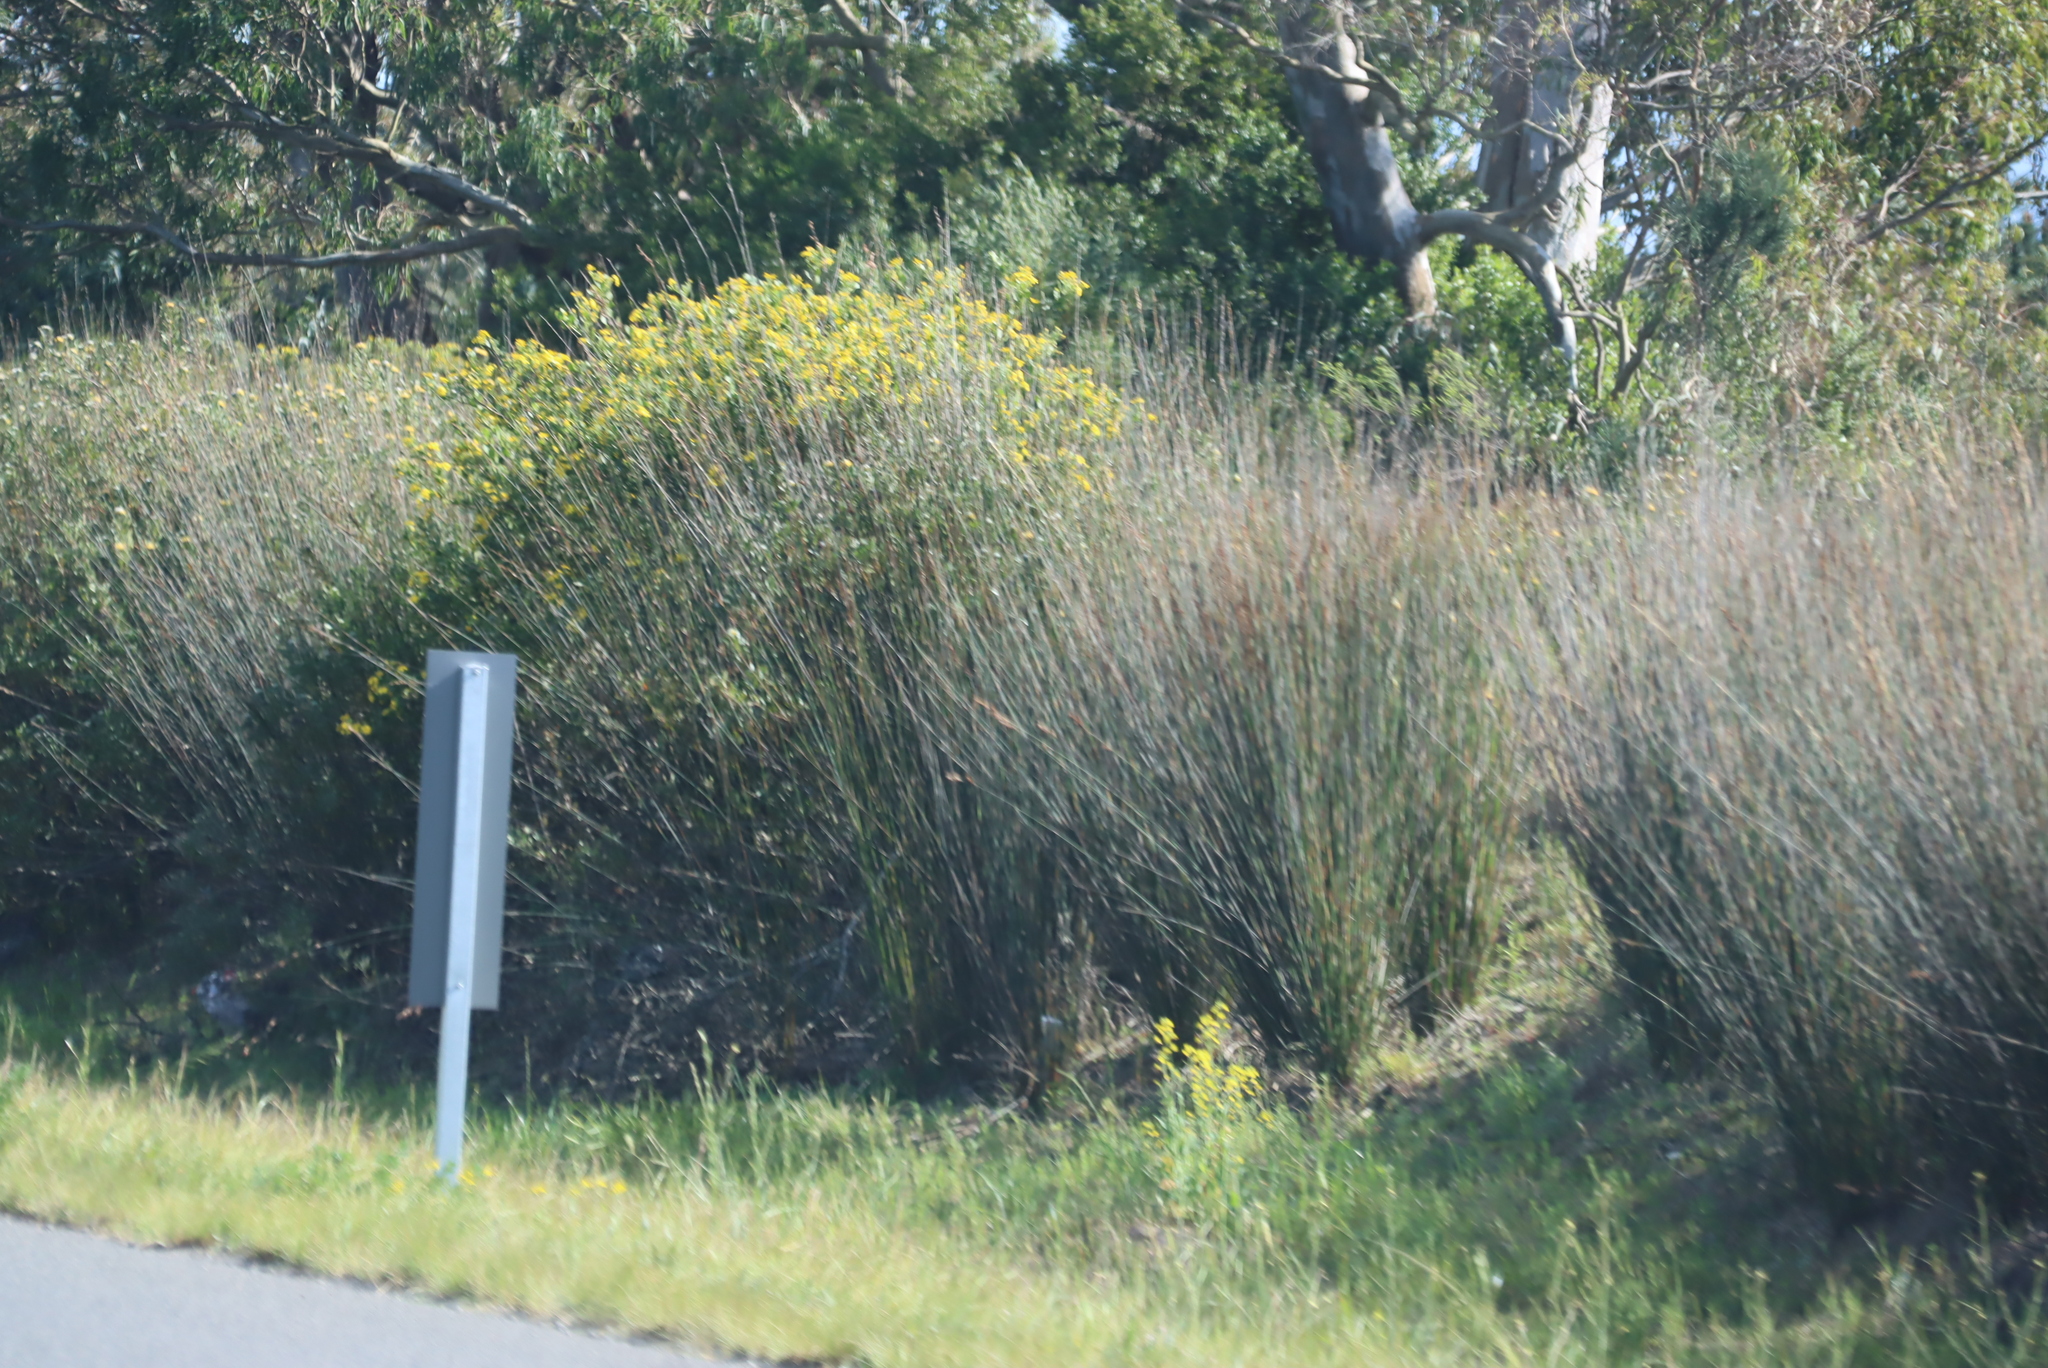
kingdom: Plantae
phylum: Tracheophyta
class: Liliopsida
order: Poales
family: Restionaceae
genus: Thamnochortus
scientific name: Thamnochortus insignis
